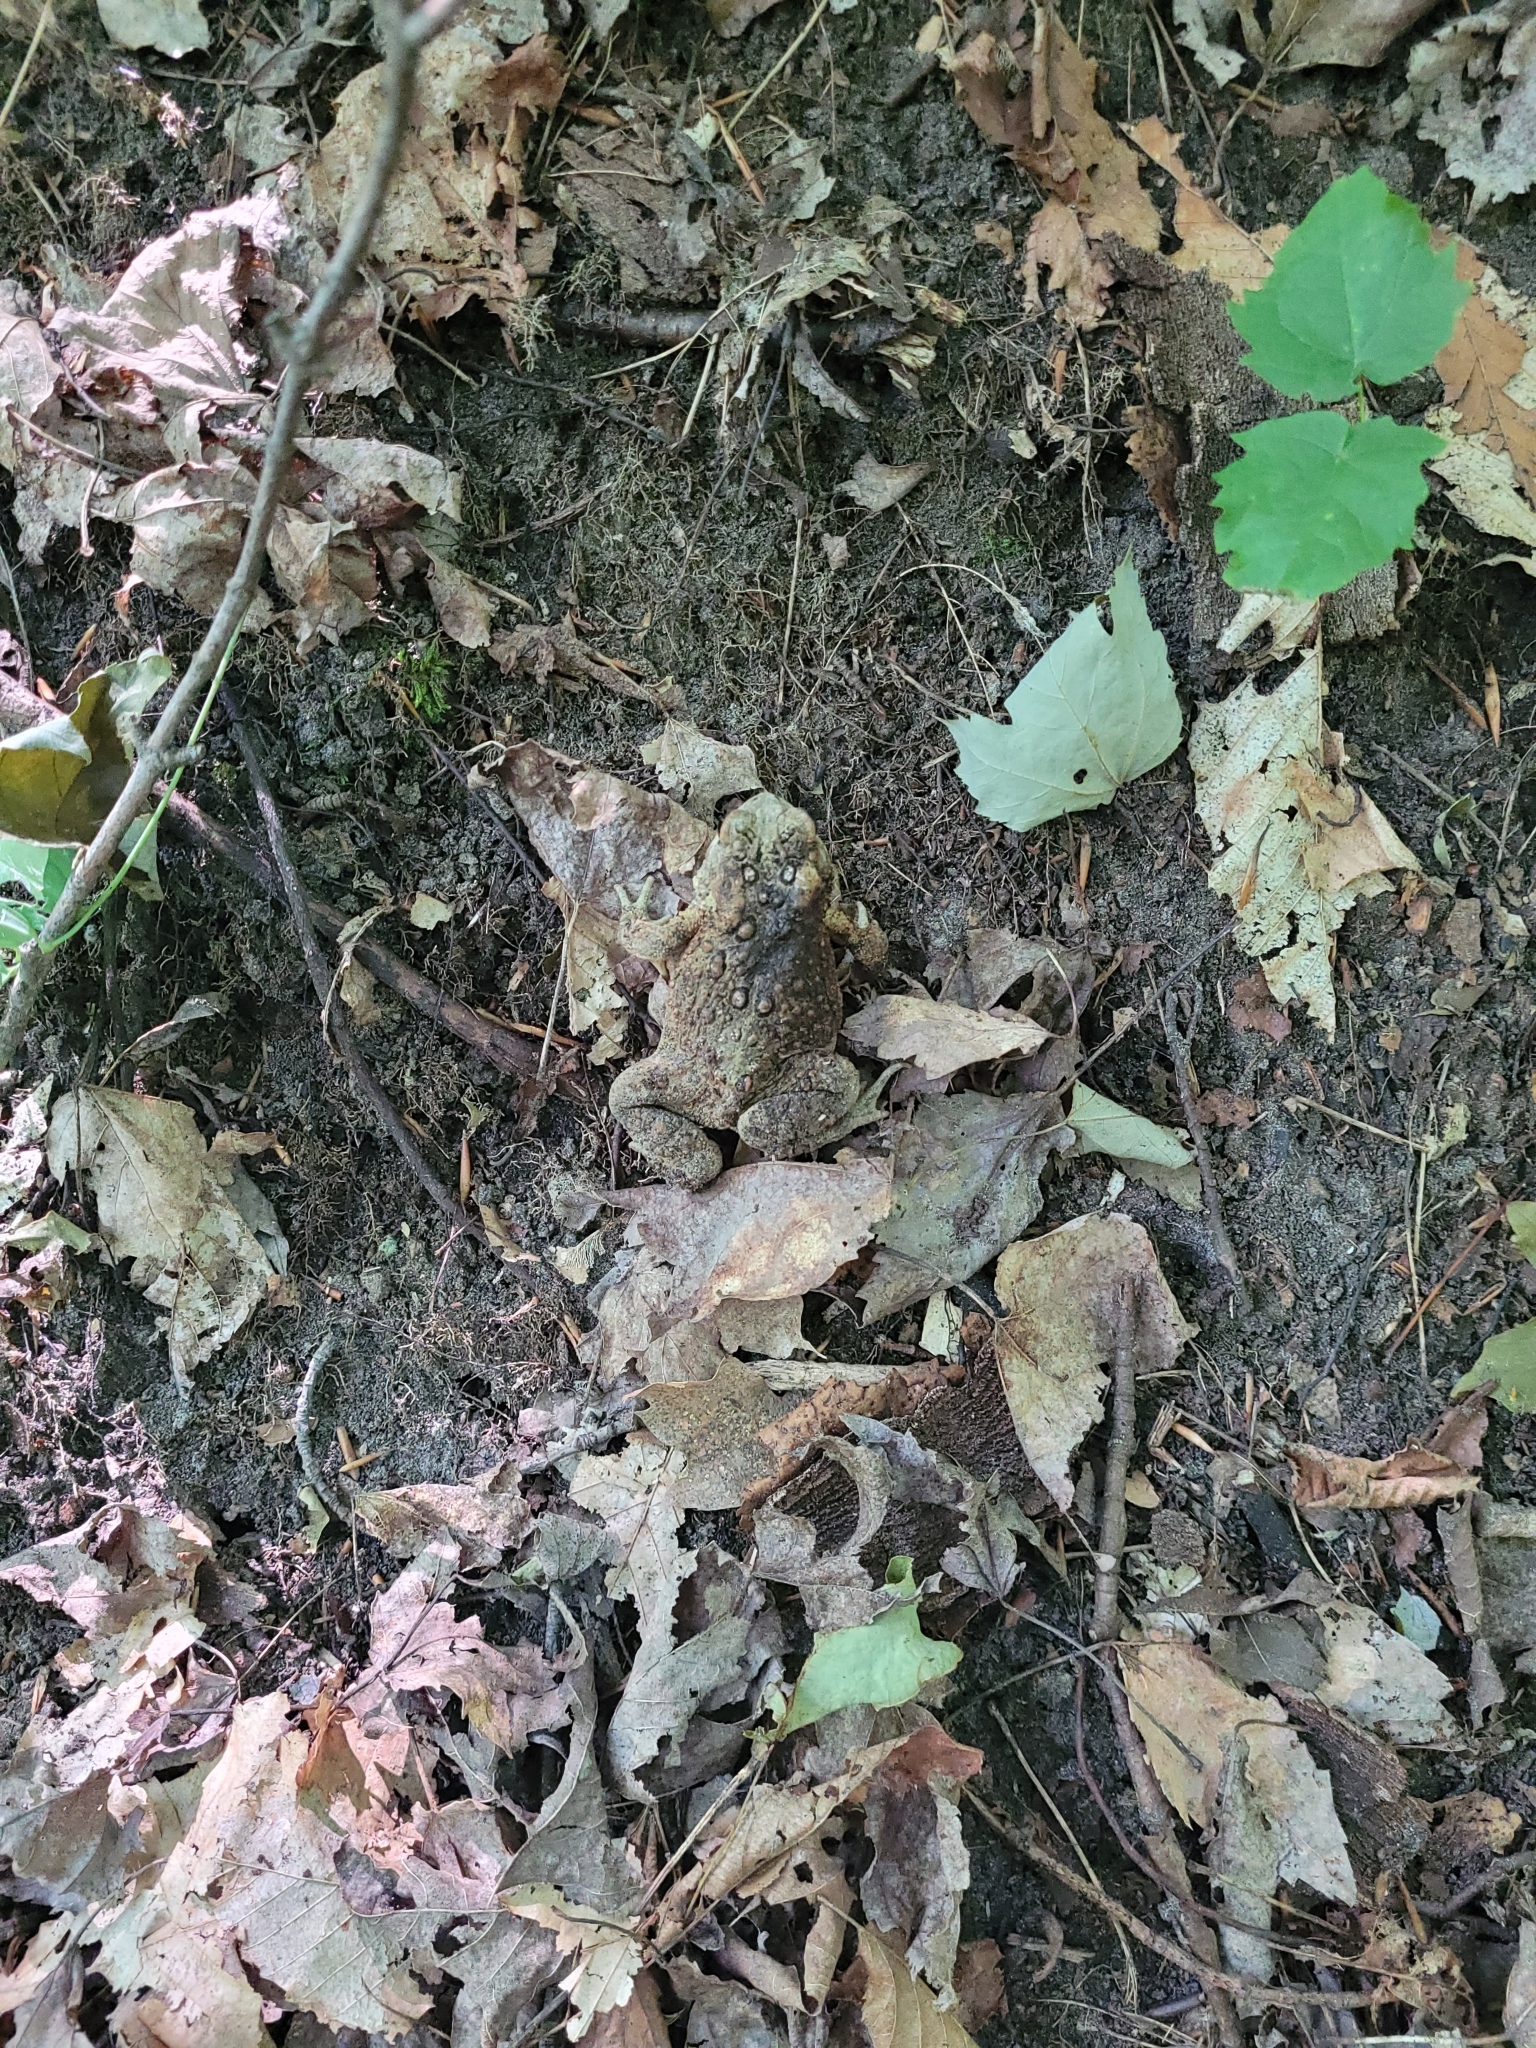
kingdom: Animalia
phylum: Chordata
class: Amphibia
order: Anura
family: Bufonidae
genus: Anaxyrus
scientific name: Anaxyrus americanus
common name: American toad
